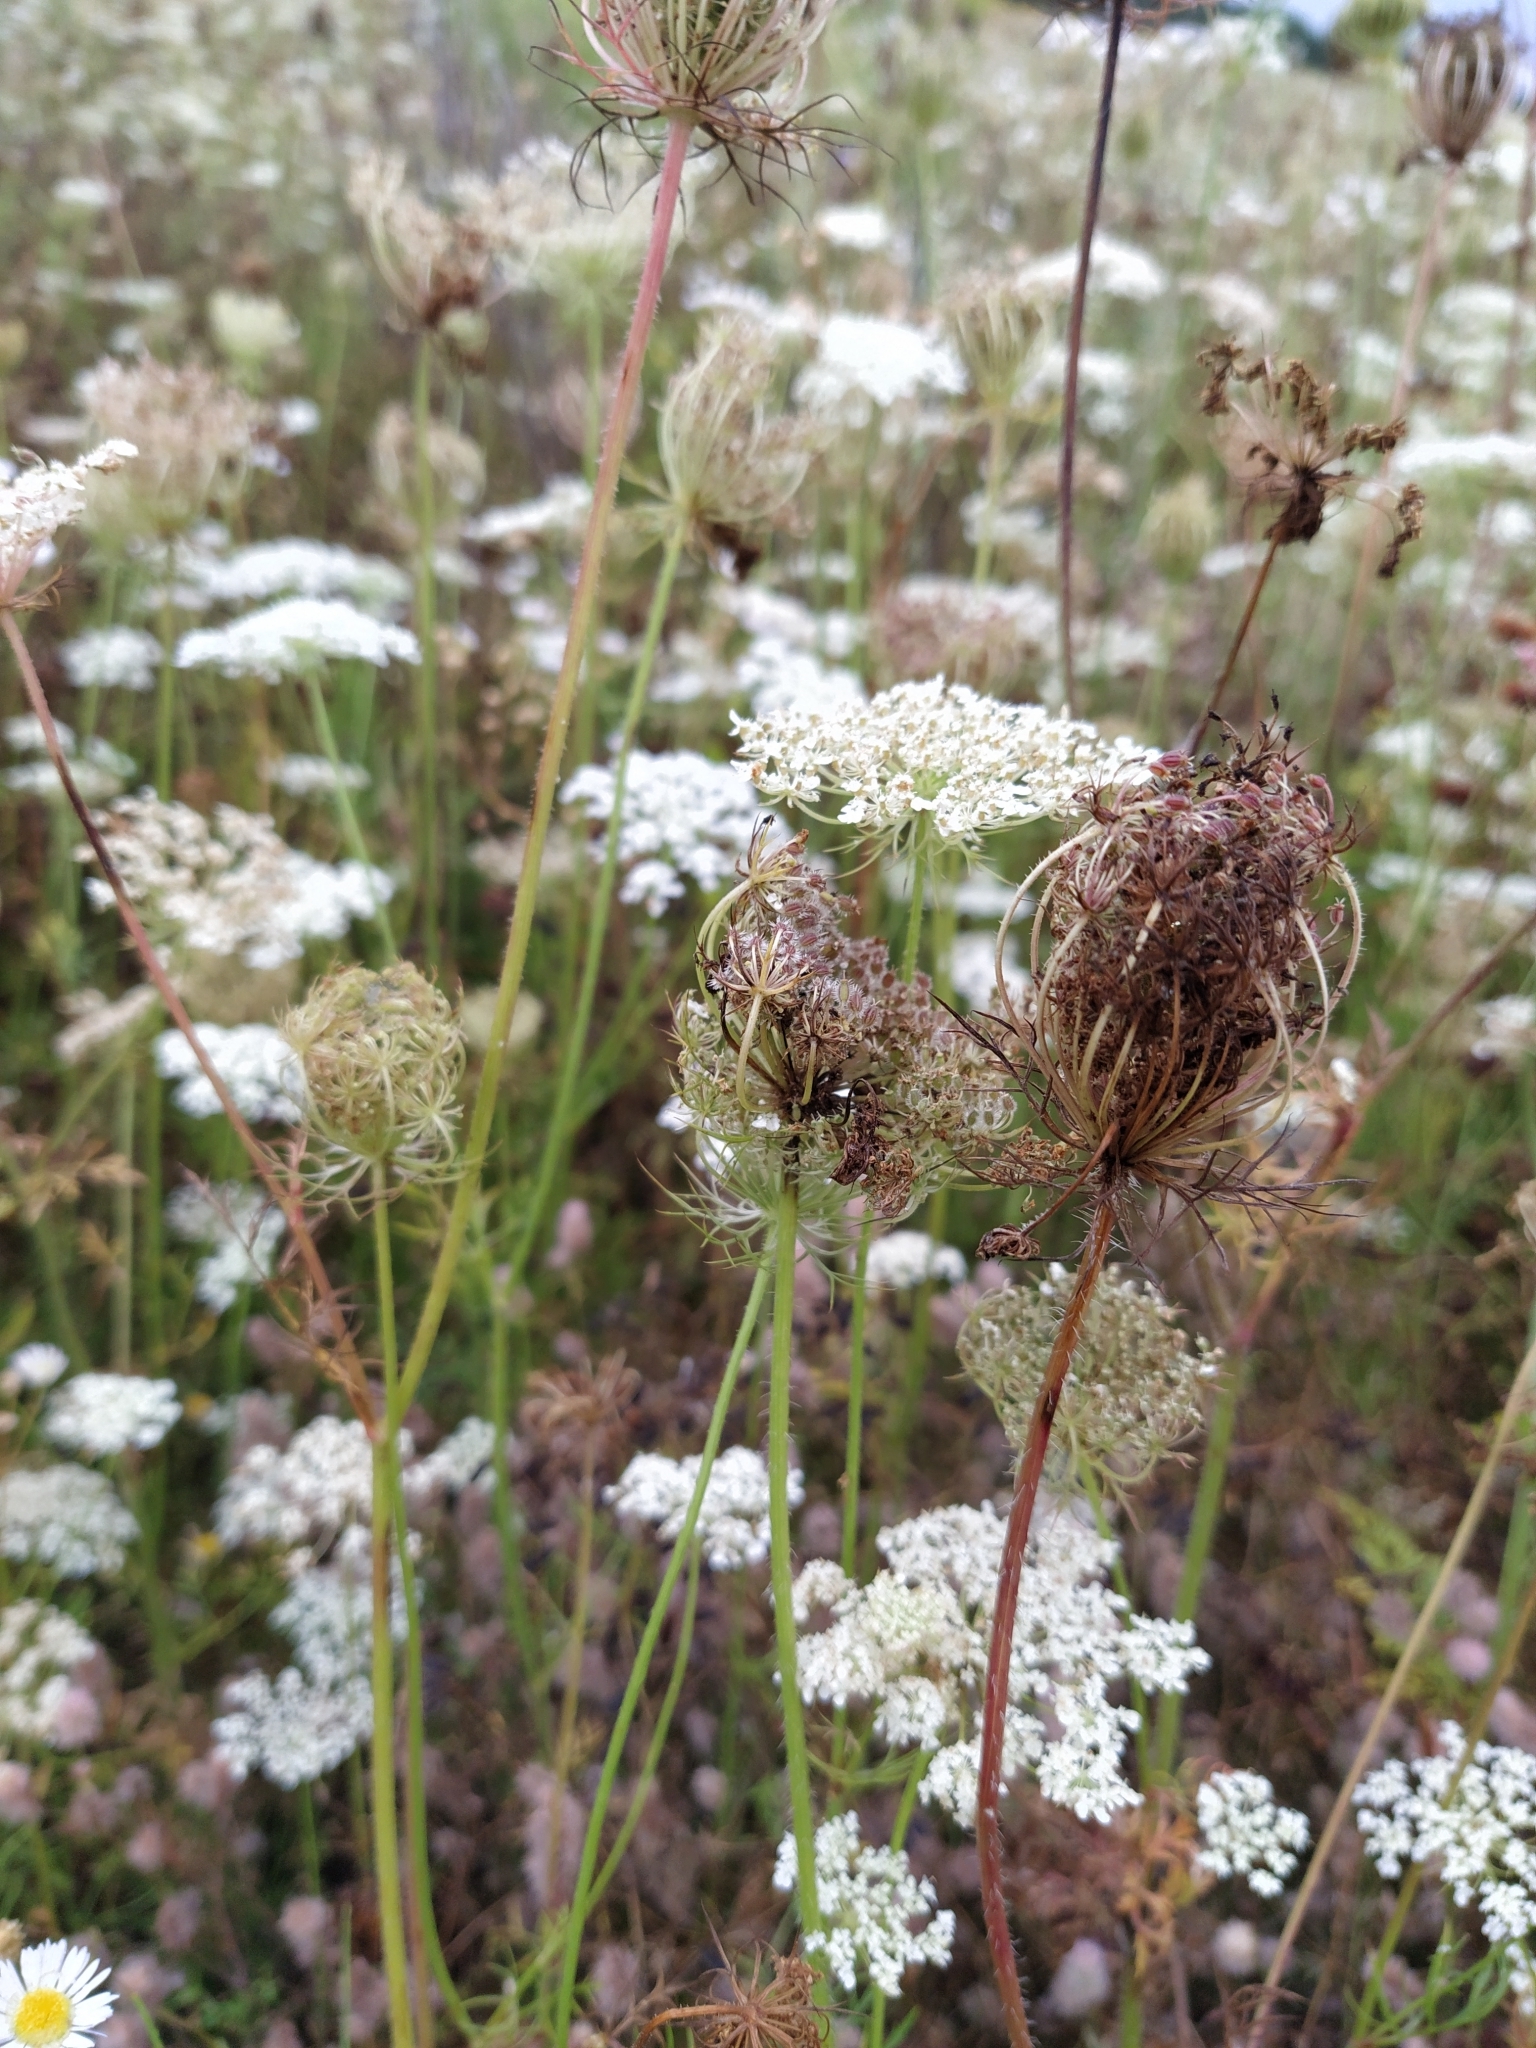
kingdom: Plantae
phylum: Tracheophyta
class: Magnoliopsida
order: Apiales
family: Apiaceae
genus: Daucus
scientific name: Daucus carota
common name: Wild carrot
